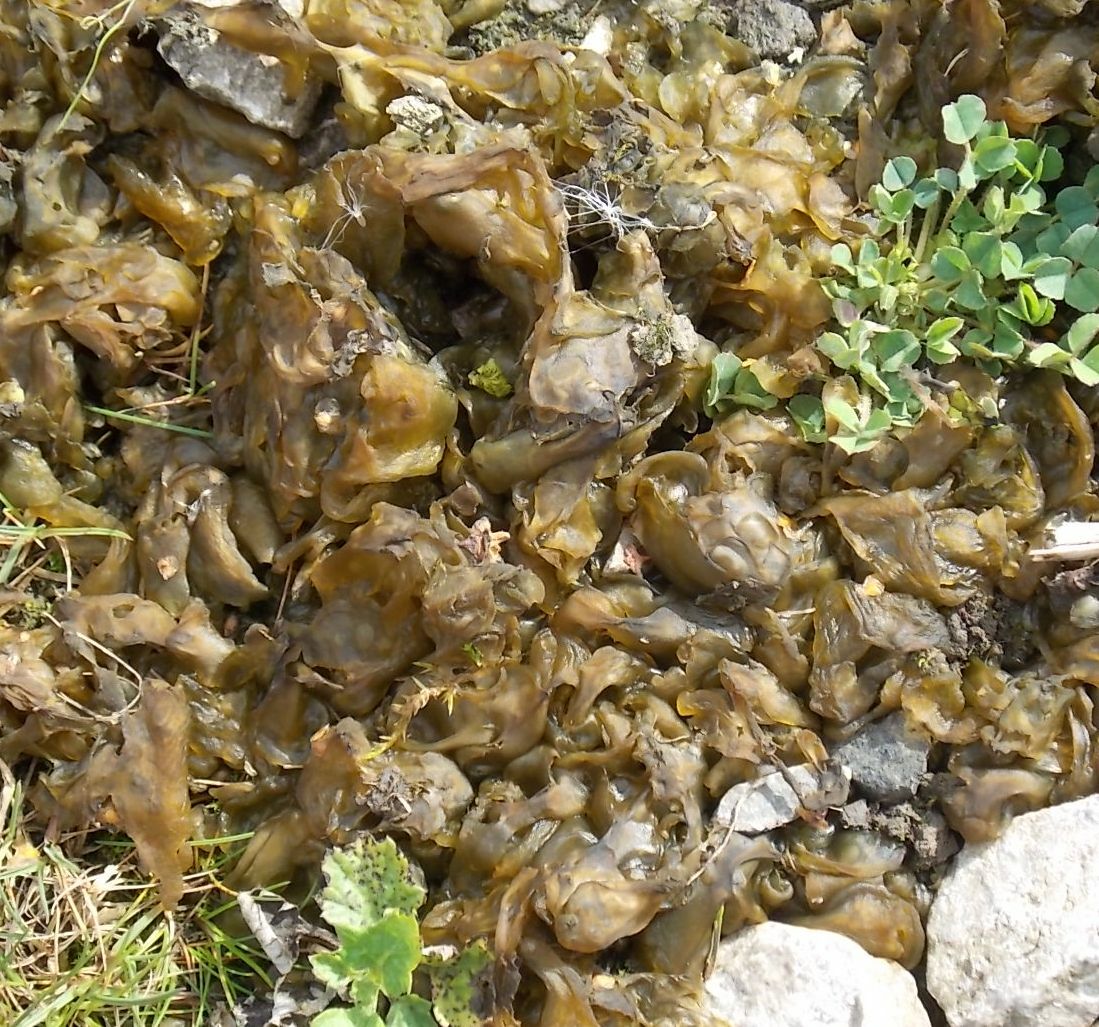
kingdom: Bacteria
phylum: Cyanobacteria
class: Cyanobacteriia
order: Cyanobacteriales
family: Nostocaceae
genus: Nostoc
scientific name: Nostoc commune
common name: Star jelly
